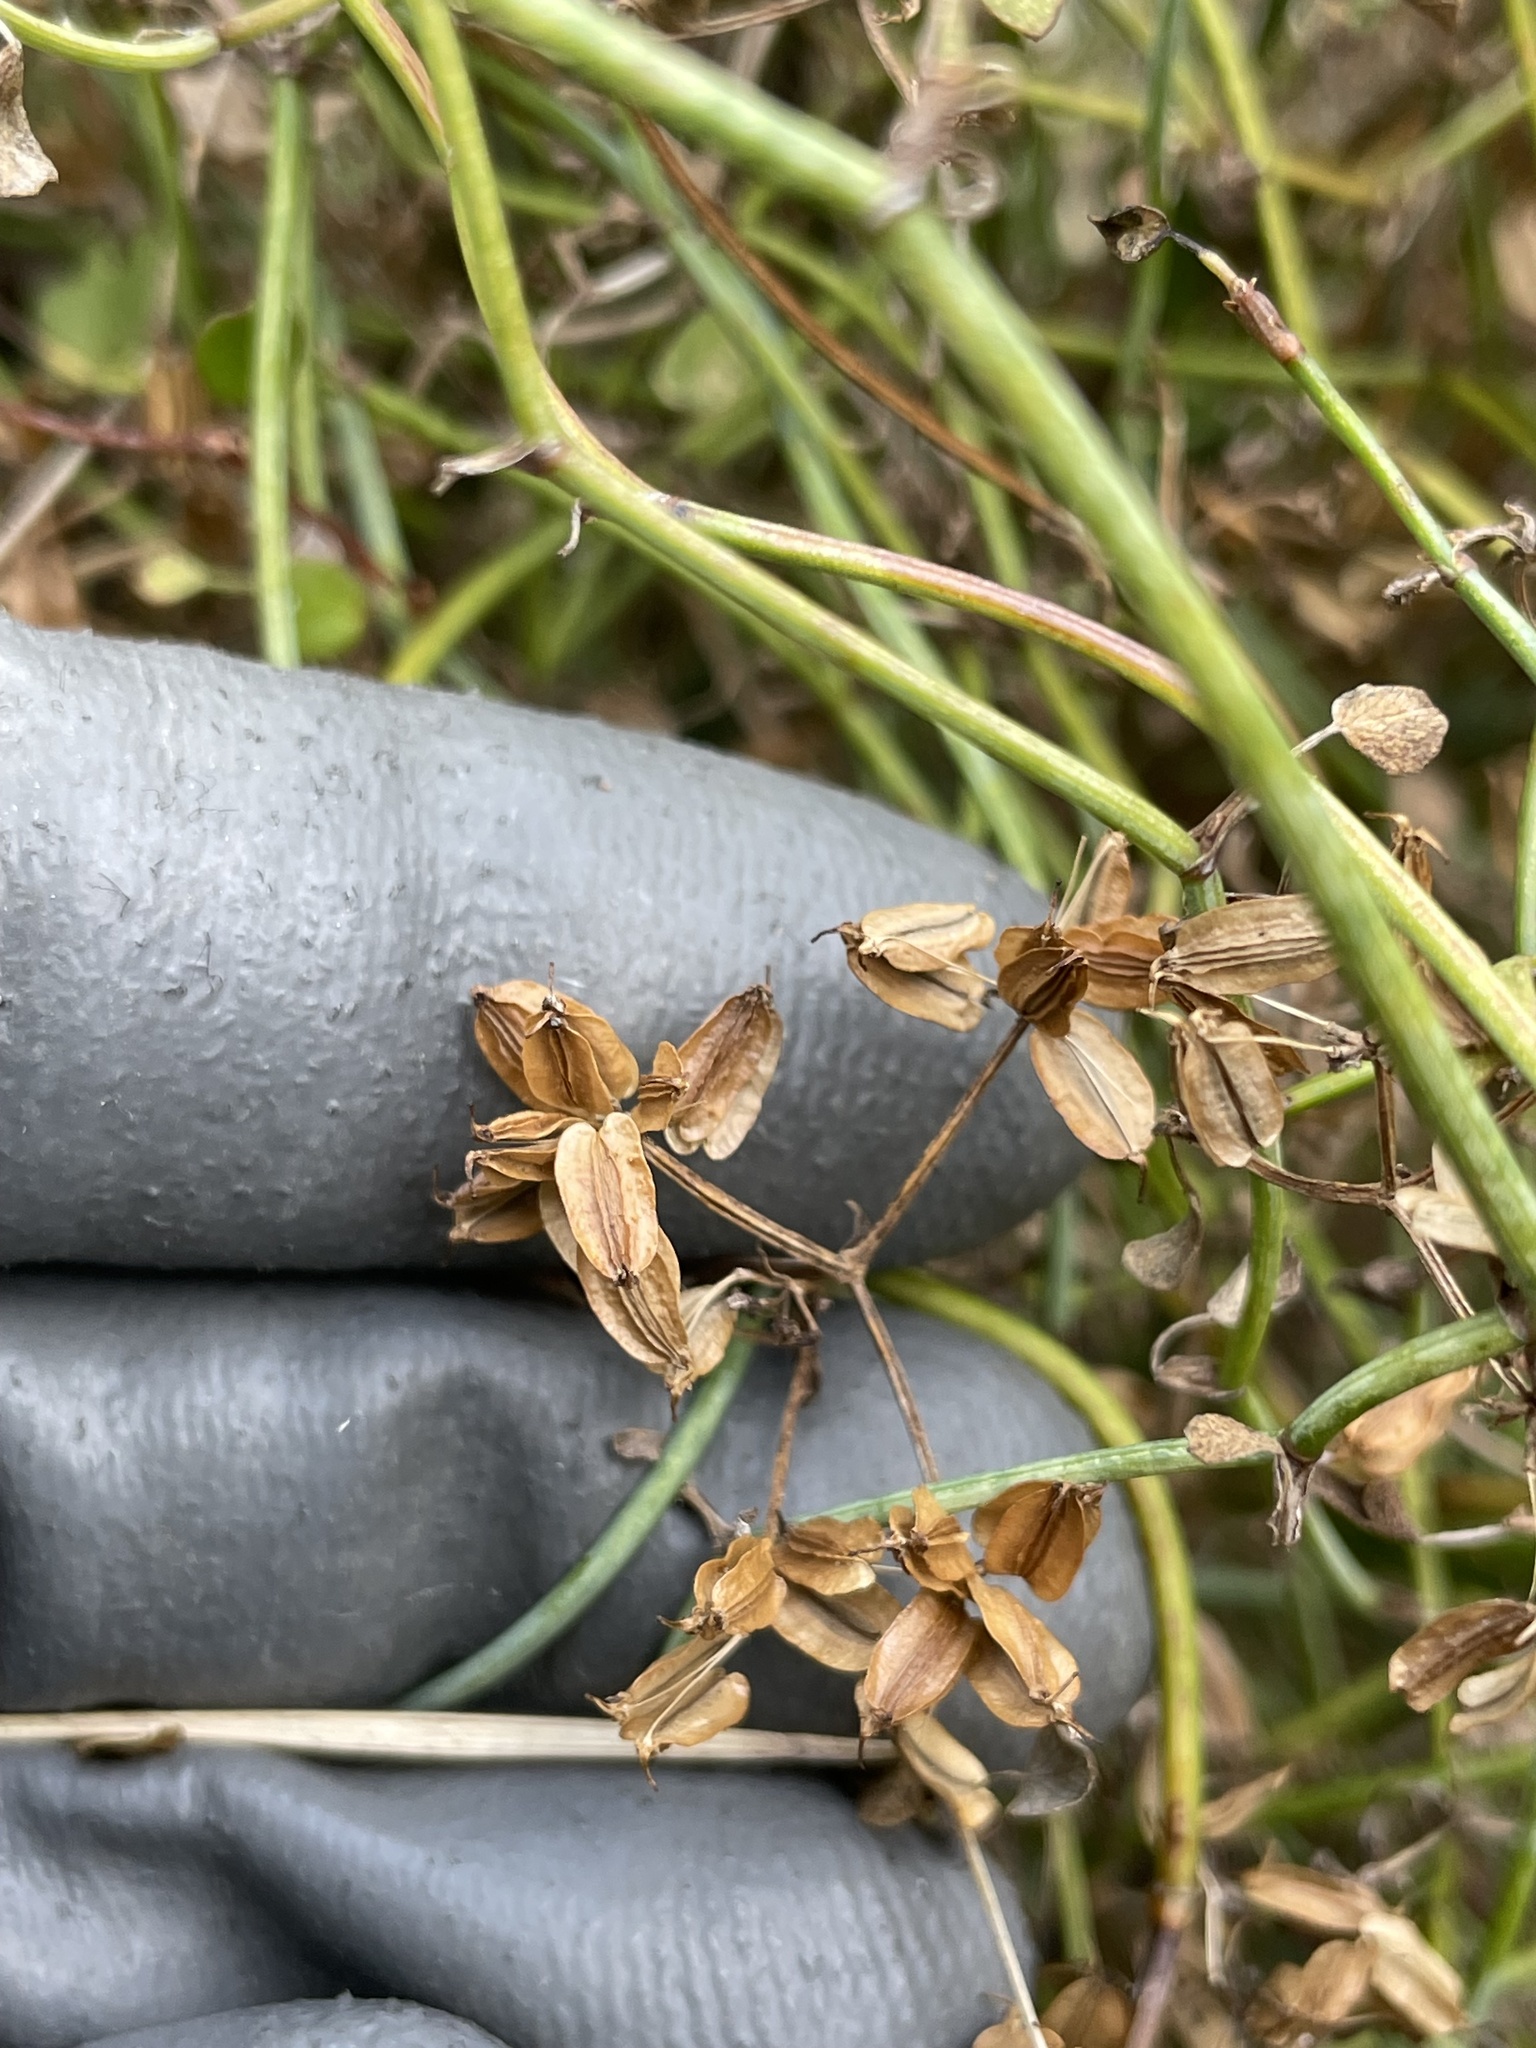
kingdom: Plantae
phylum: Tracheophyta
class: Magnoliopsida
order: Apiales
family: Apiaceae
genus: Scandia
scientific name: Scandia geniculata
